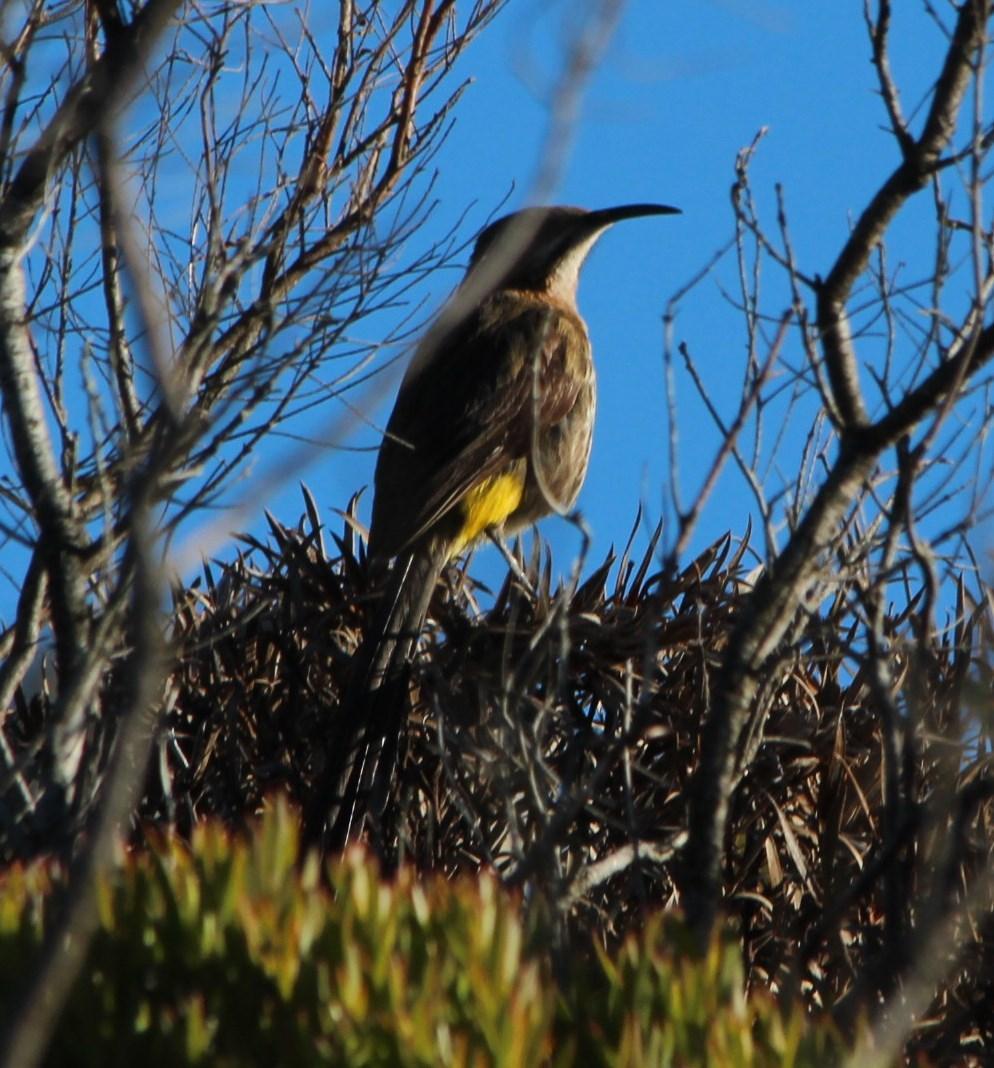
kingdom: Animalia
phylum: Chordata
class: Aves
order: Passeriformes
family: Promeropidae
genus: Promerops
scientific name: Promerops cafer
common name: Cape sugarbird
